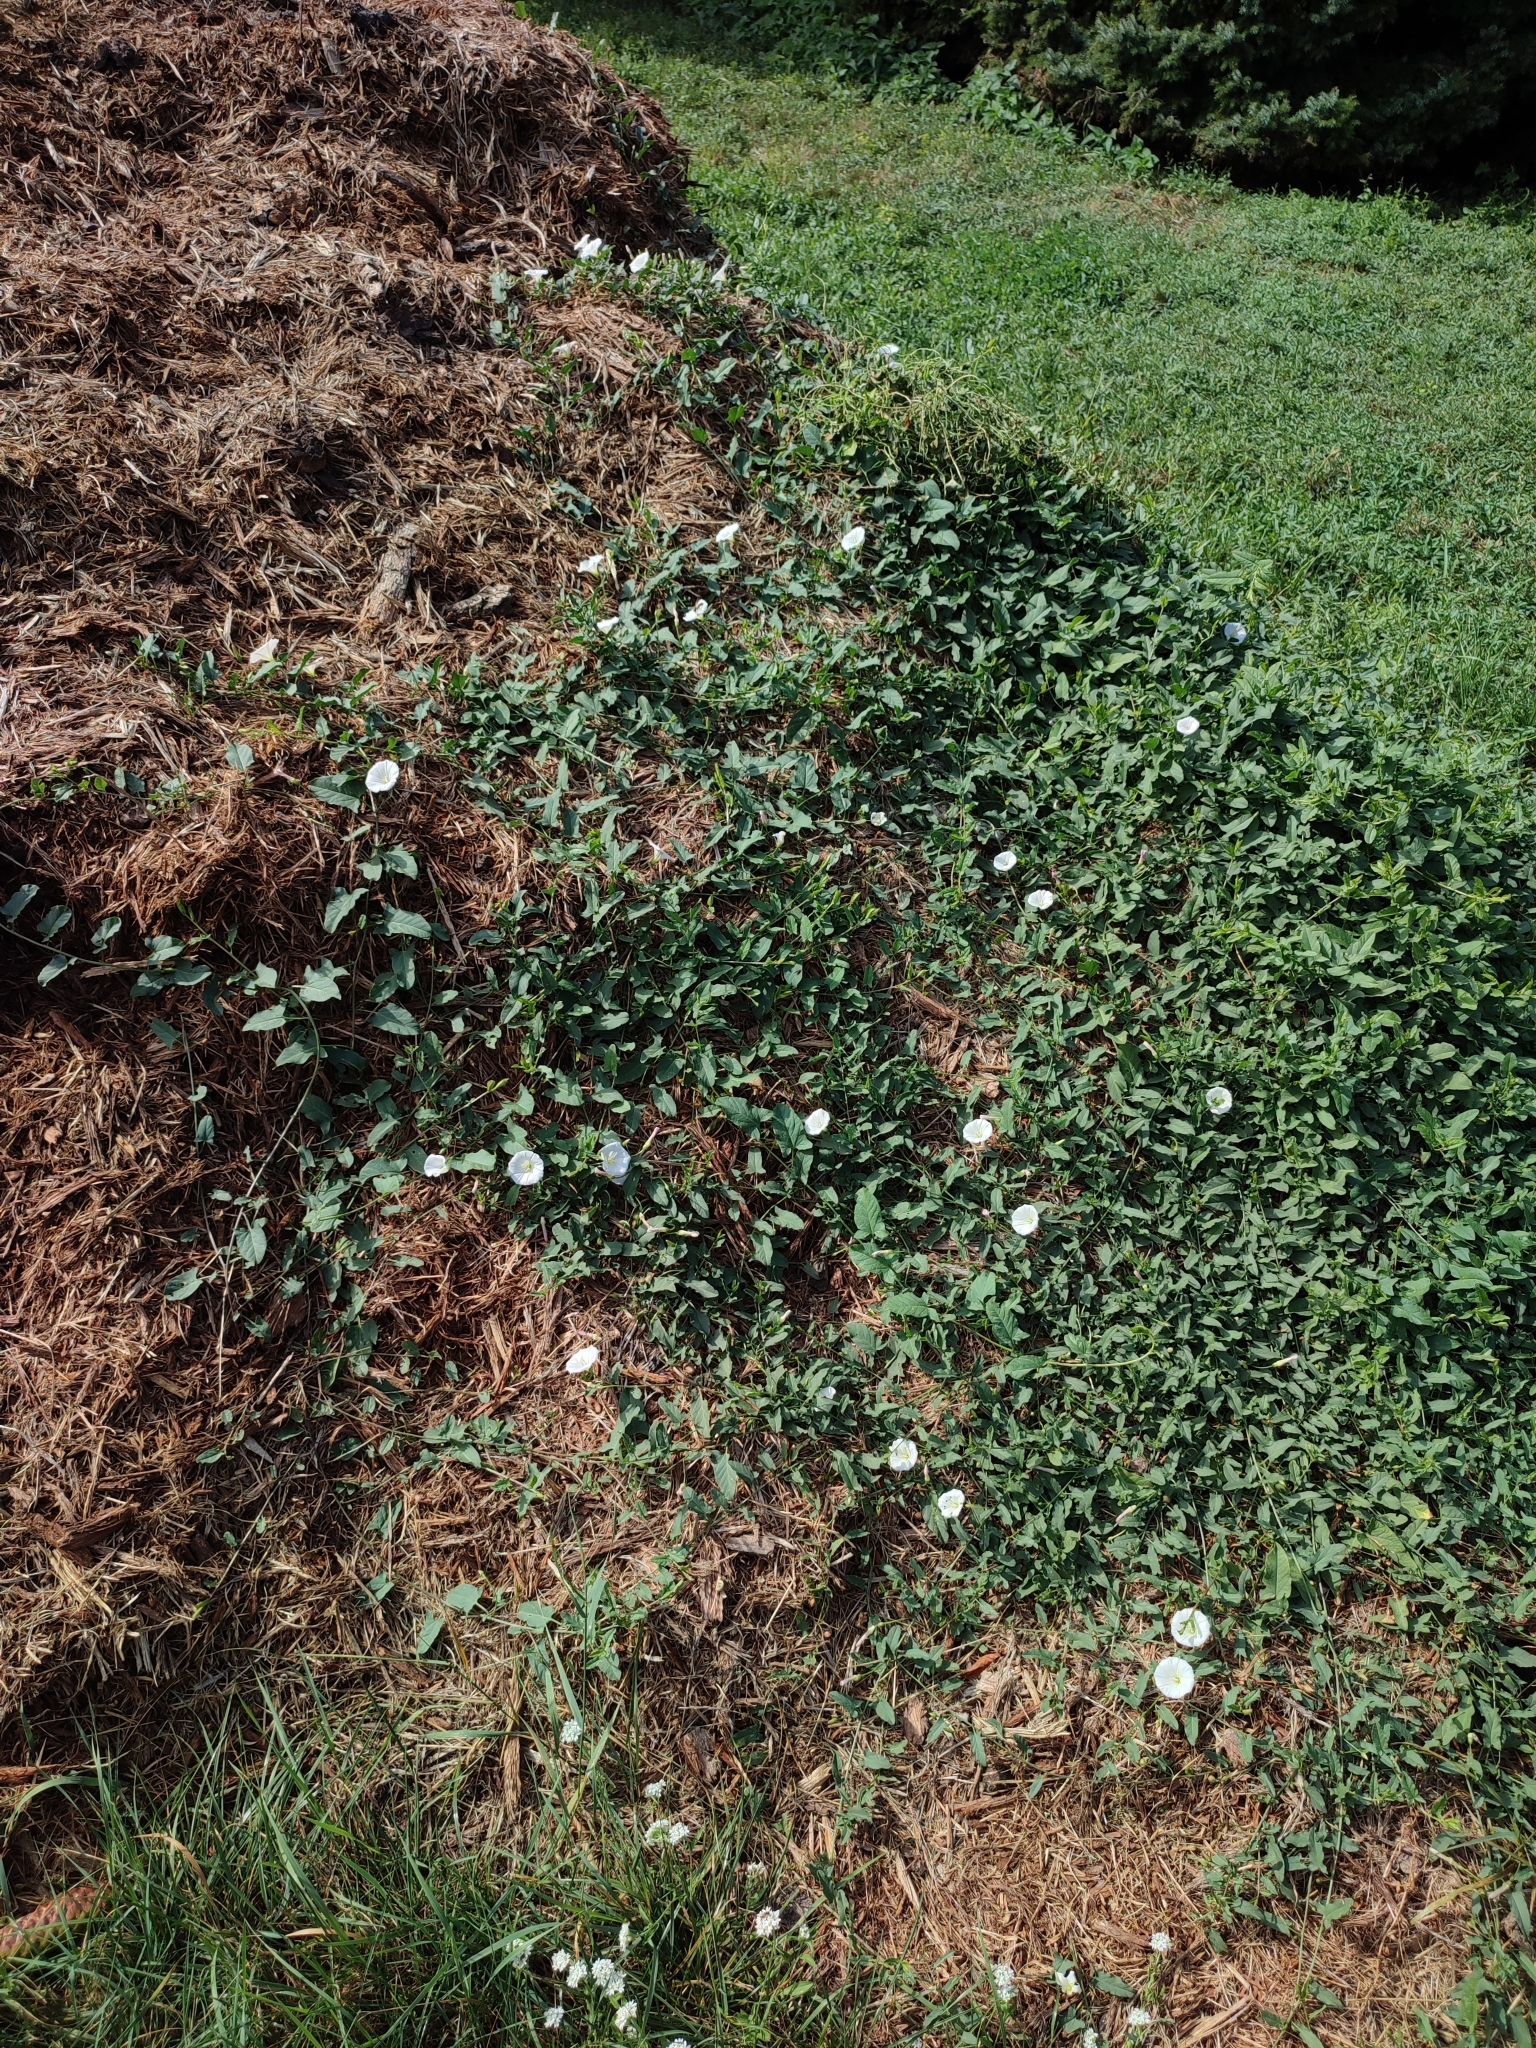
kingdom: Plantae
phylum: Tracheophyta
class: Magnoliopsida
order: Solanales
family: Convolvulaceae
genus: Convolvulus
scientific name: Convolvulus arvensis
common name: Field bindweed
